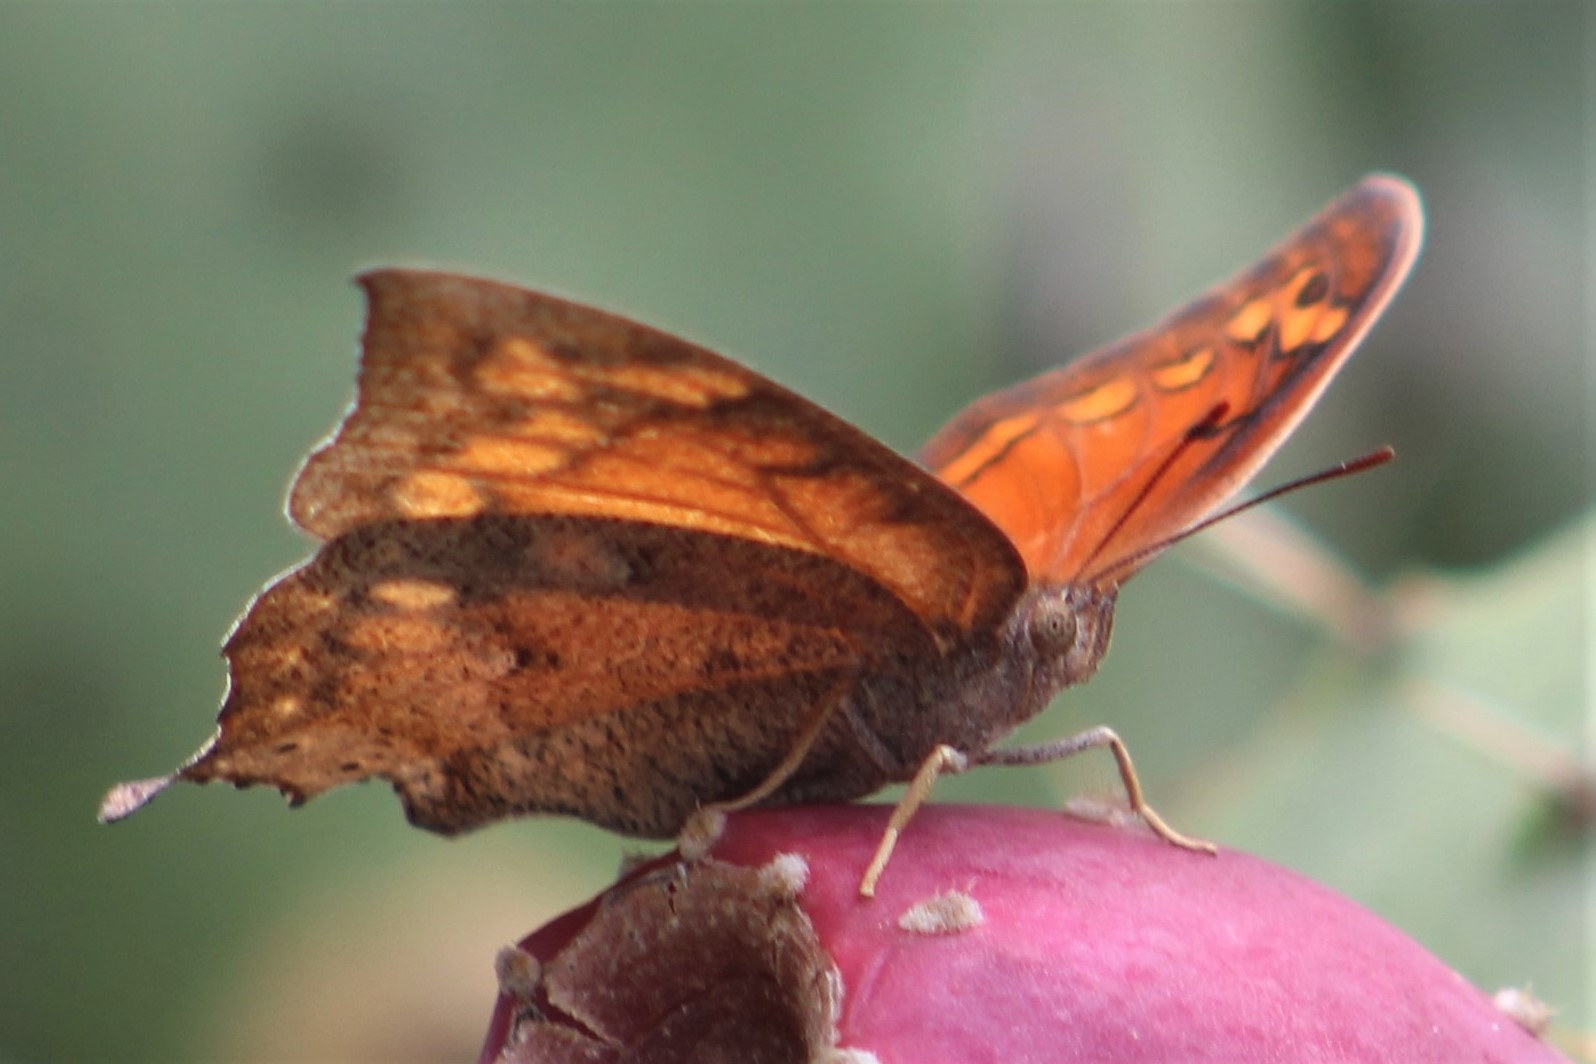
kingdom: Animalia
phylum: Arthropoda
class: Insecta
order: Lepidoptera
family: Nymphalidae
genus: Anaea
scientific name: Anaea aidea
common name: Tropical leafwing
